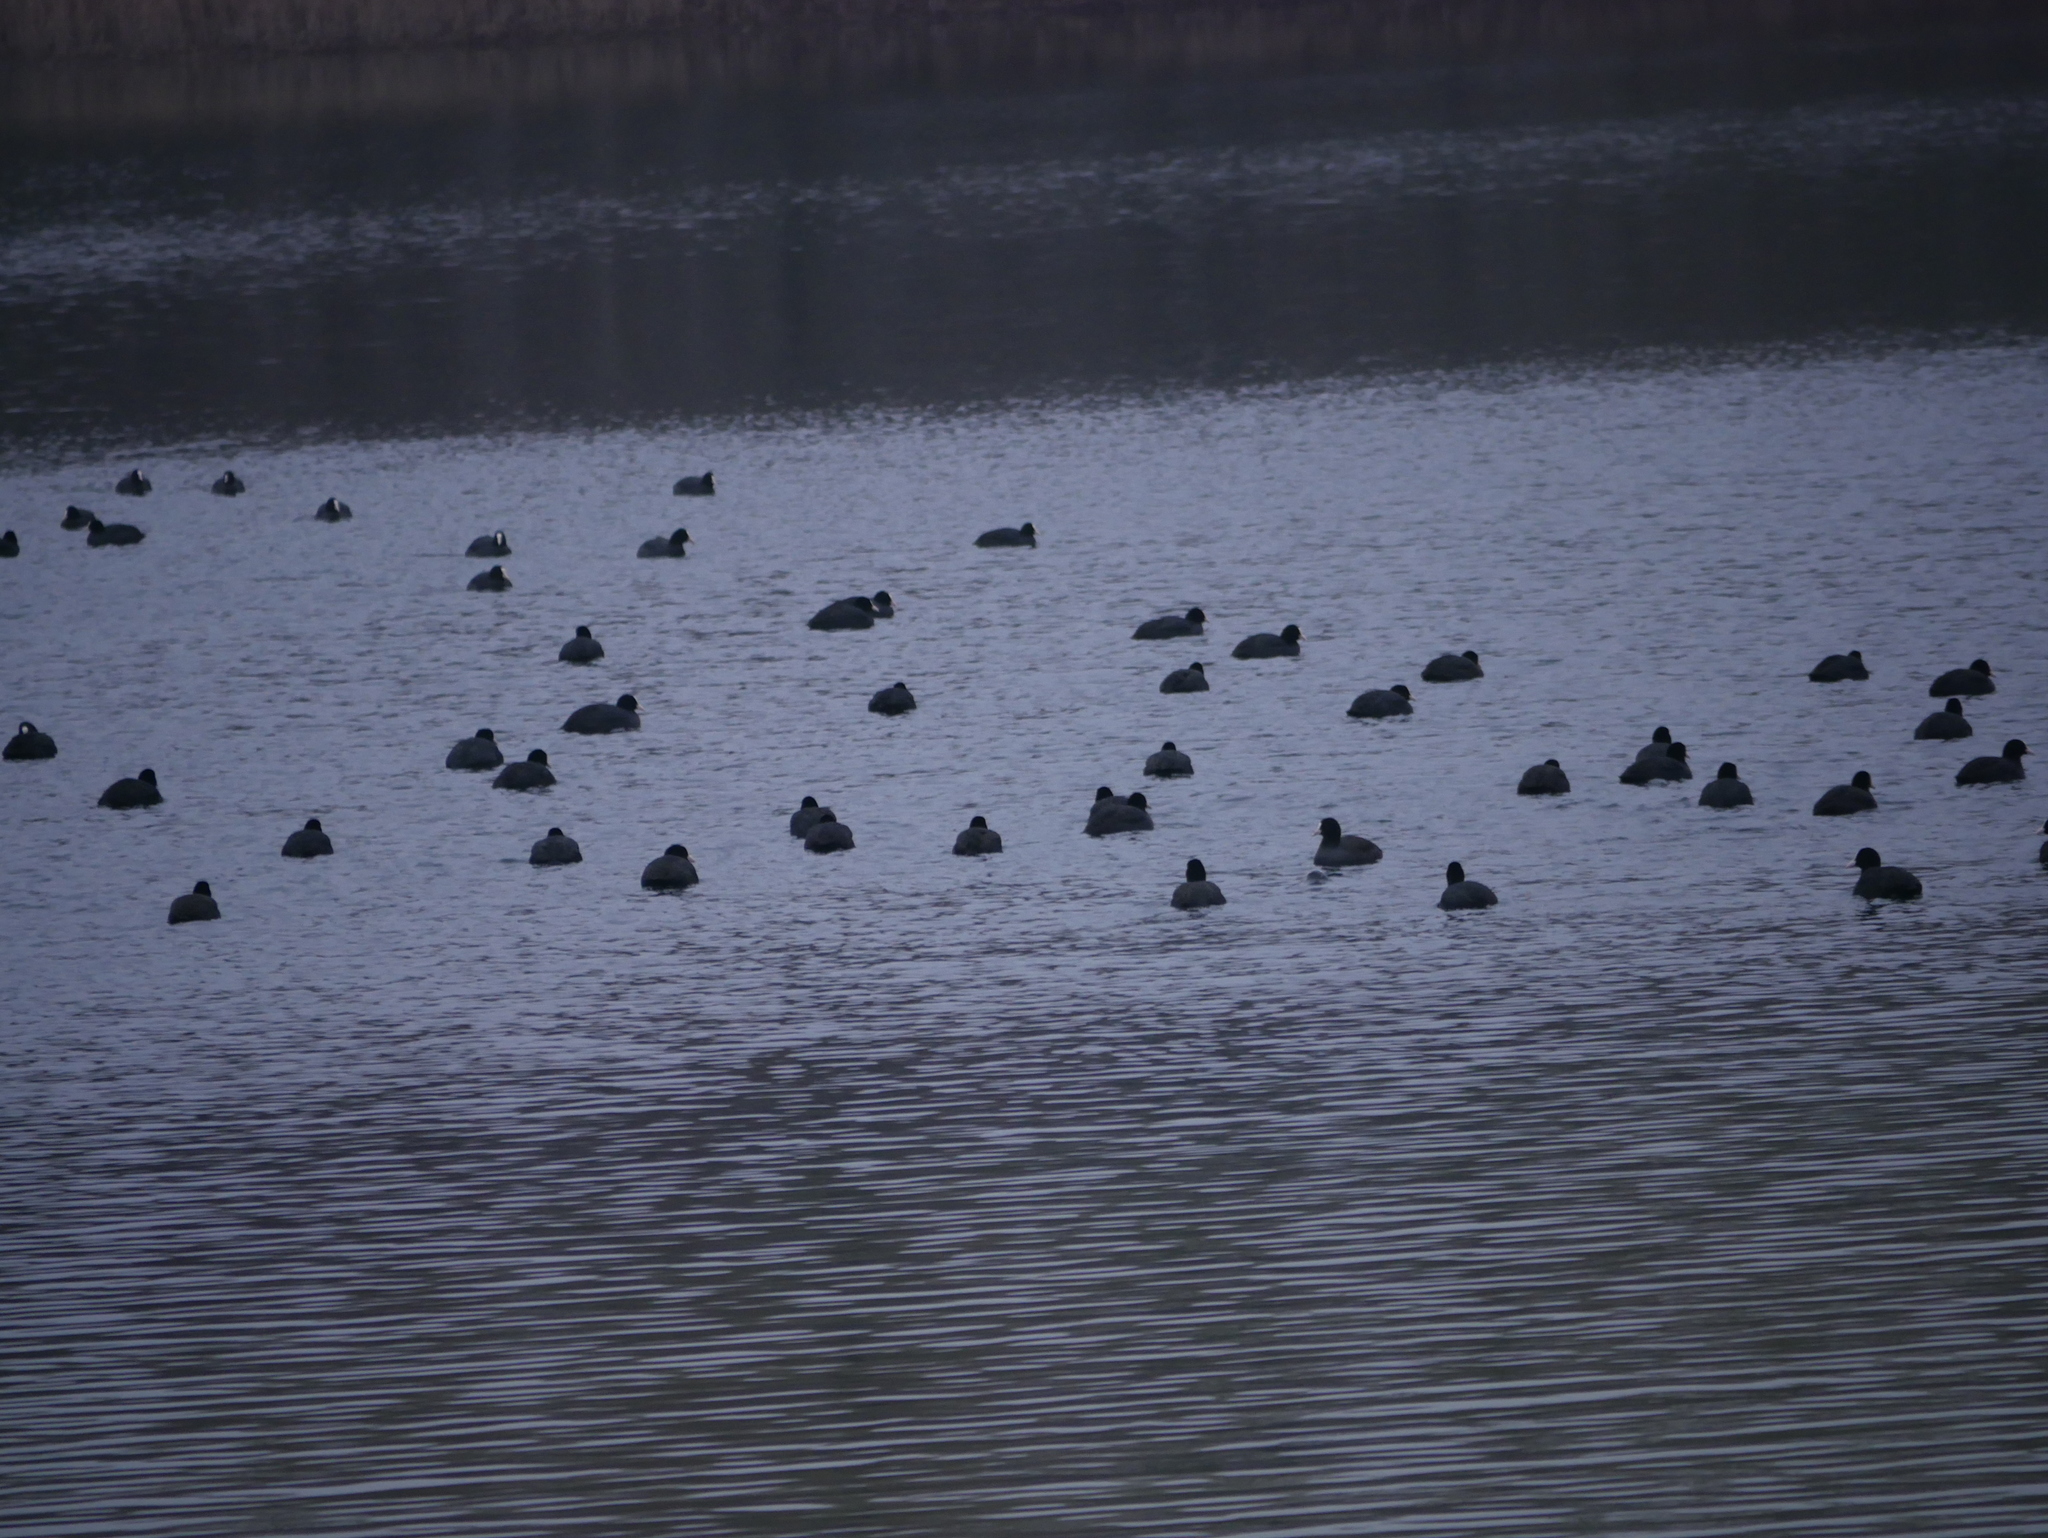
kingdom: Animalia
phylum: Chordata
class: Aves
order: Gruiformes
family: Rallidae
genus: Fulica
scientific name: Fulica atra
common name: Eurasian coot
